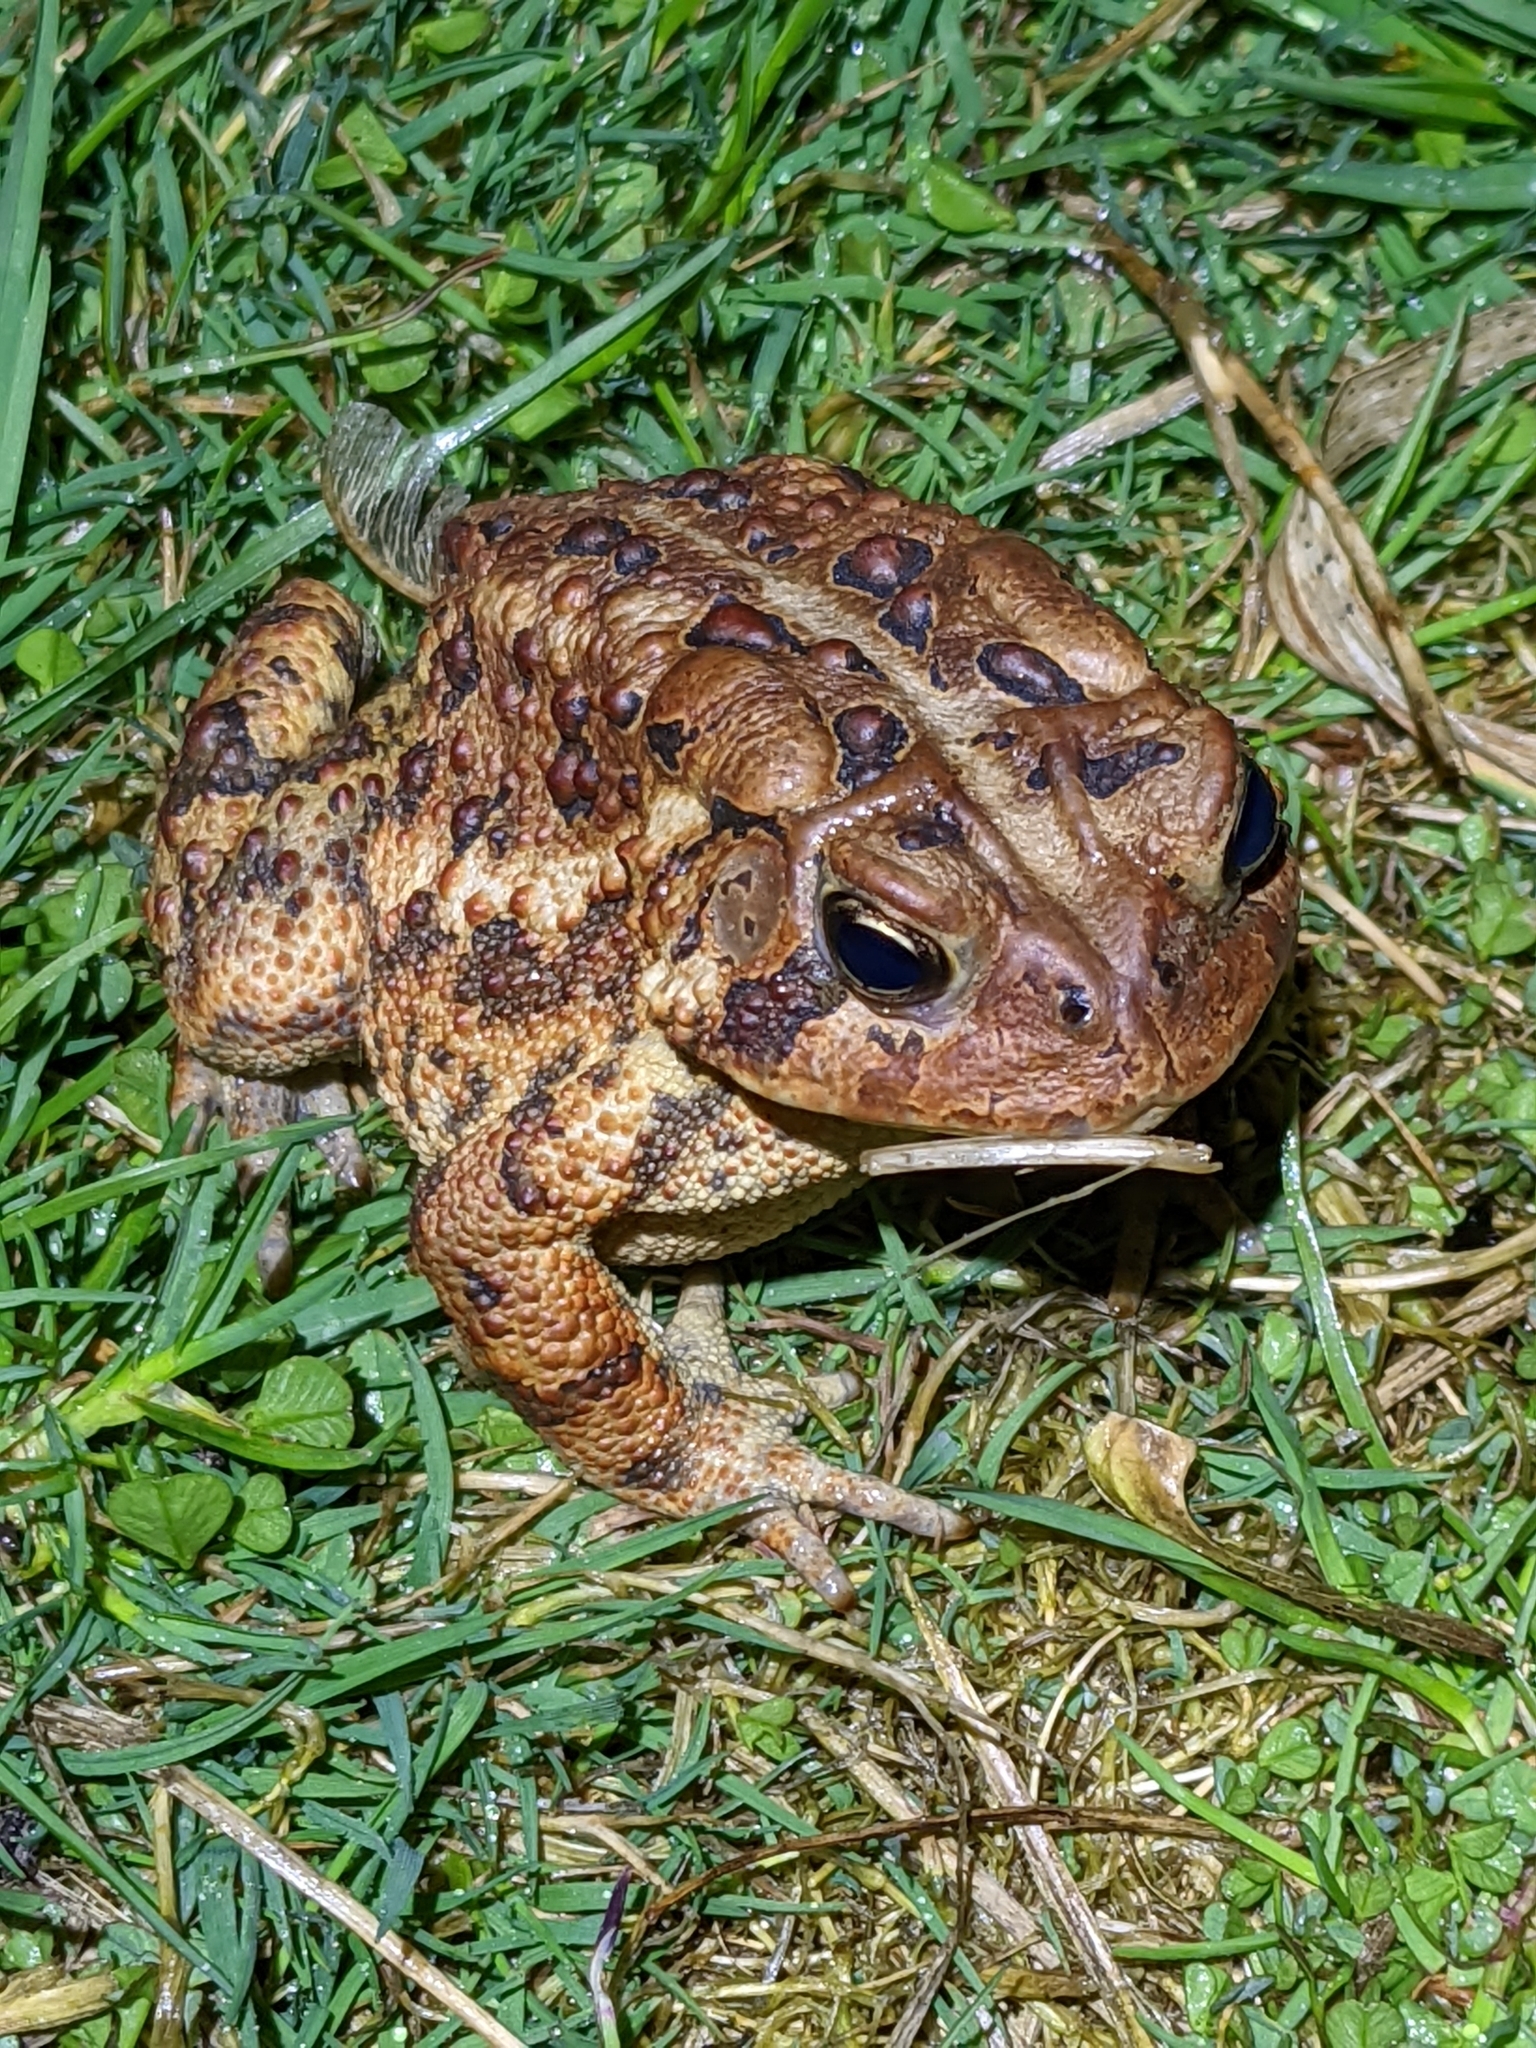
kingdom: Animalia
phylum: Chordata
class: Amphibia
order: Anura
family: Bufonidae
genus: Anaxyrus
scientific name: Anaxyrus americanus
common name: American toad
